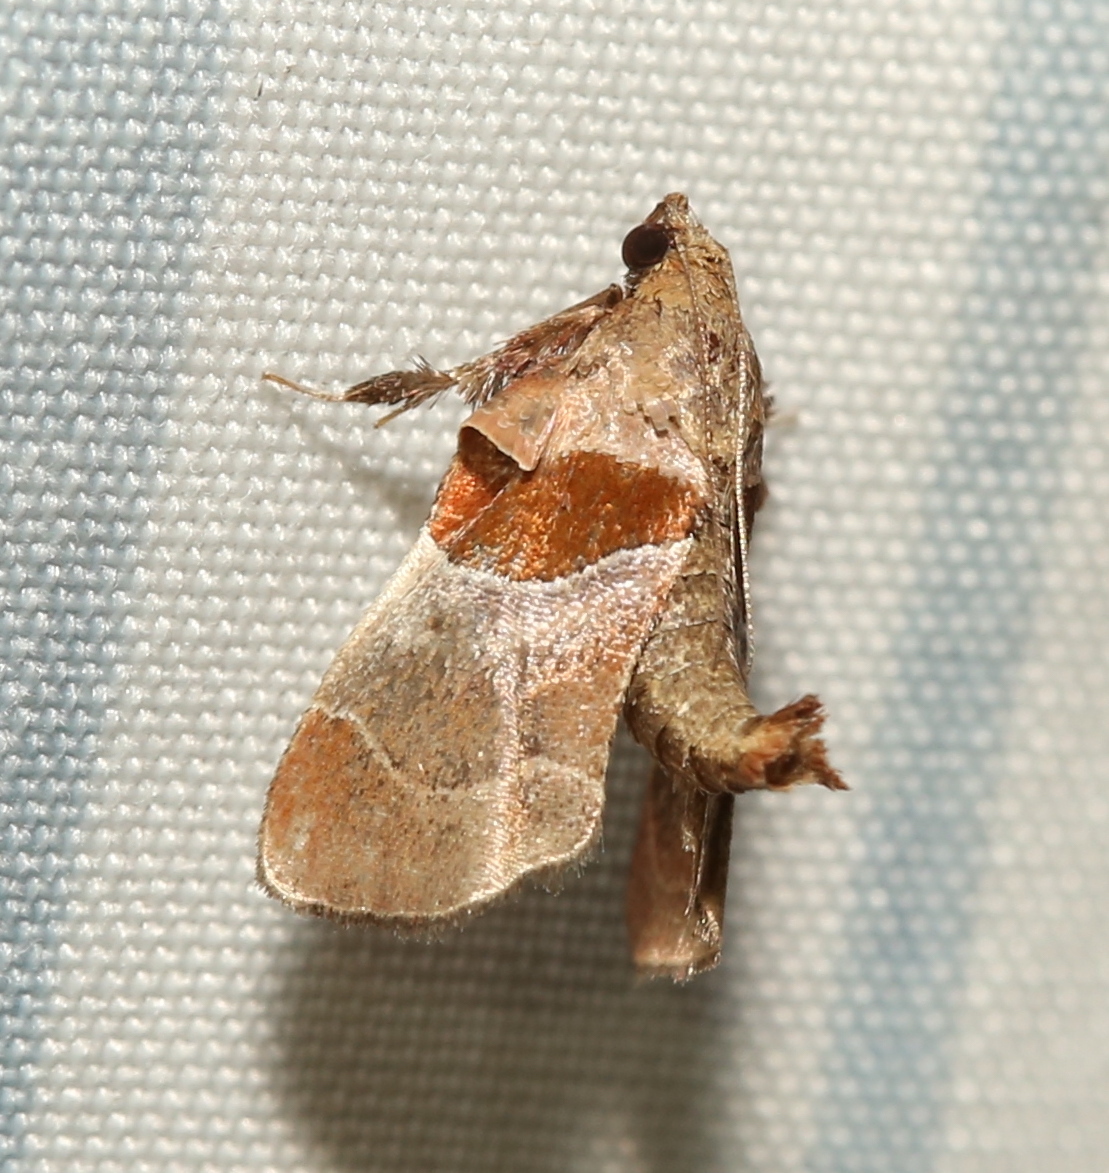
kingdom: Animalia
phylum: Arthropoda
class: Insecta
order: Lepidoptera
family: Pyralidae
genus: Tosale
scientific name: Tosale oviplagalis
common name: Dimorphic tosale moth
